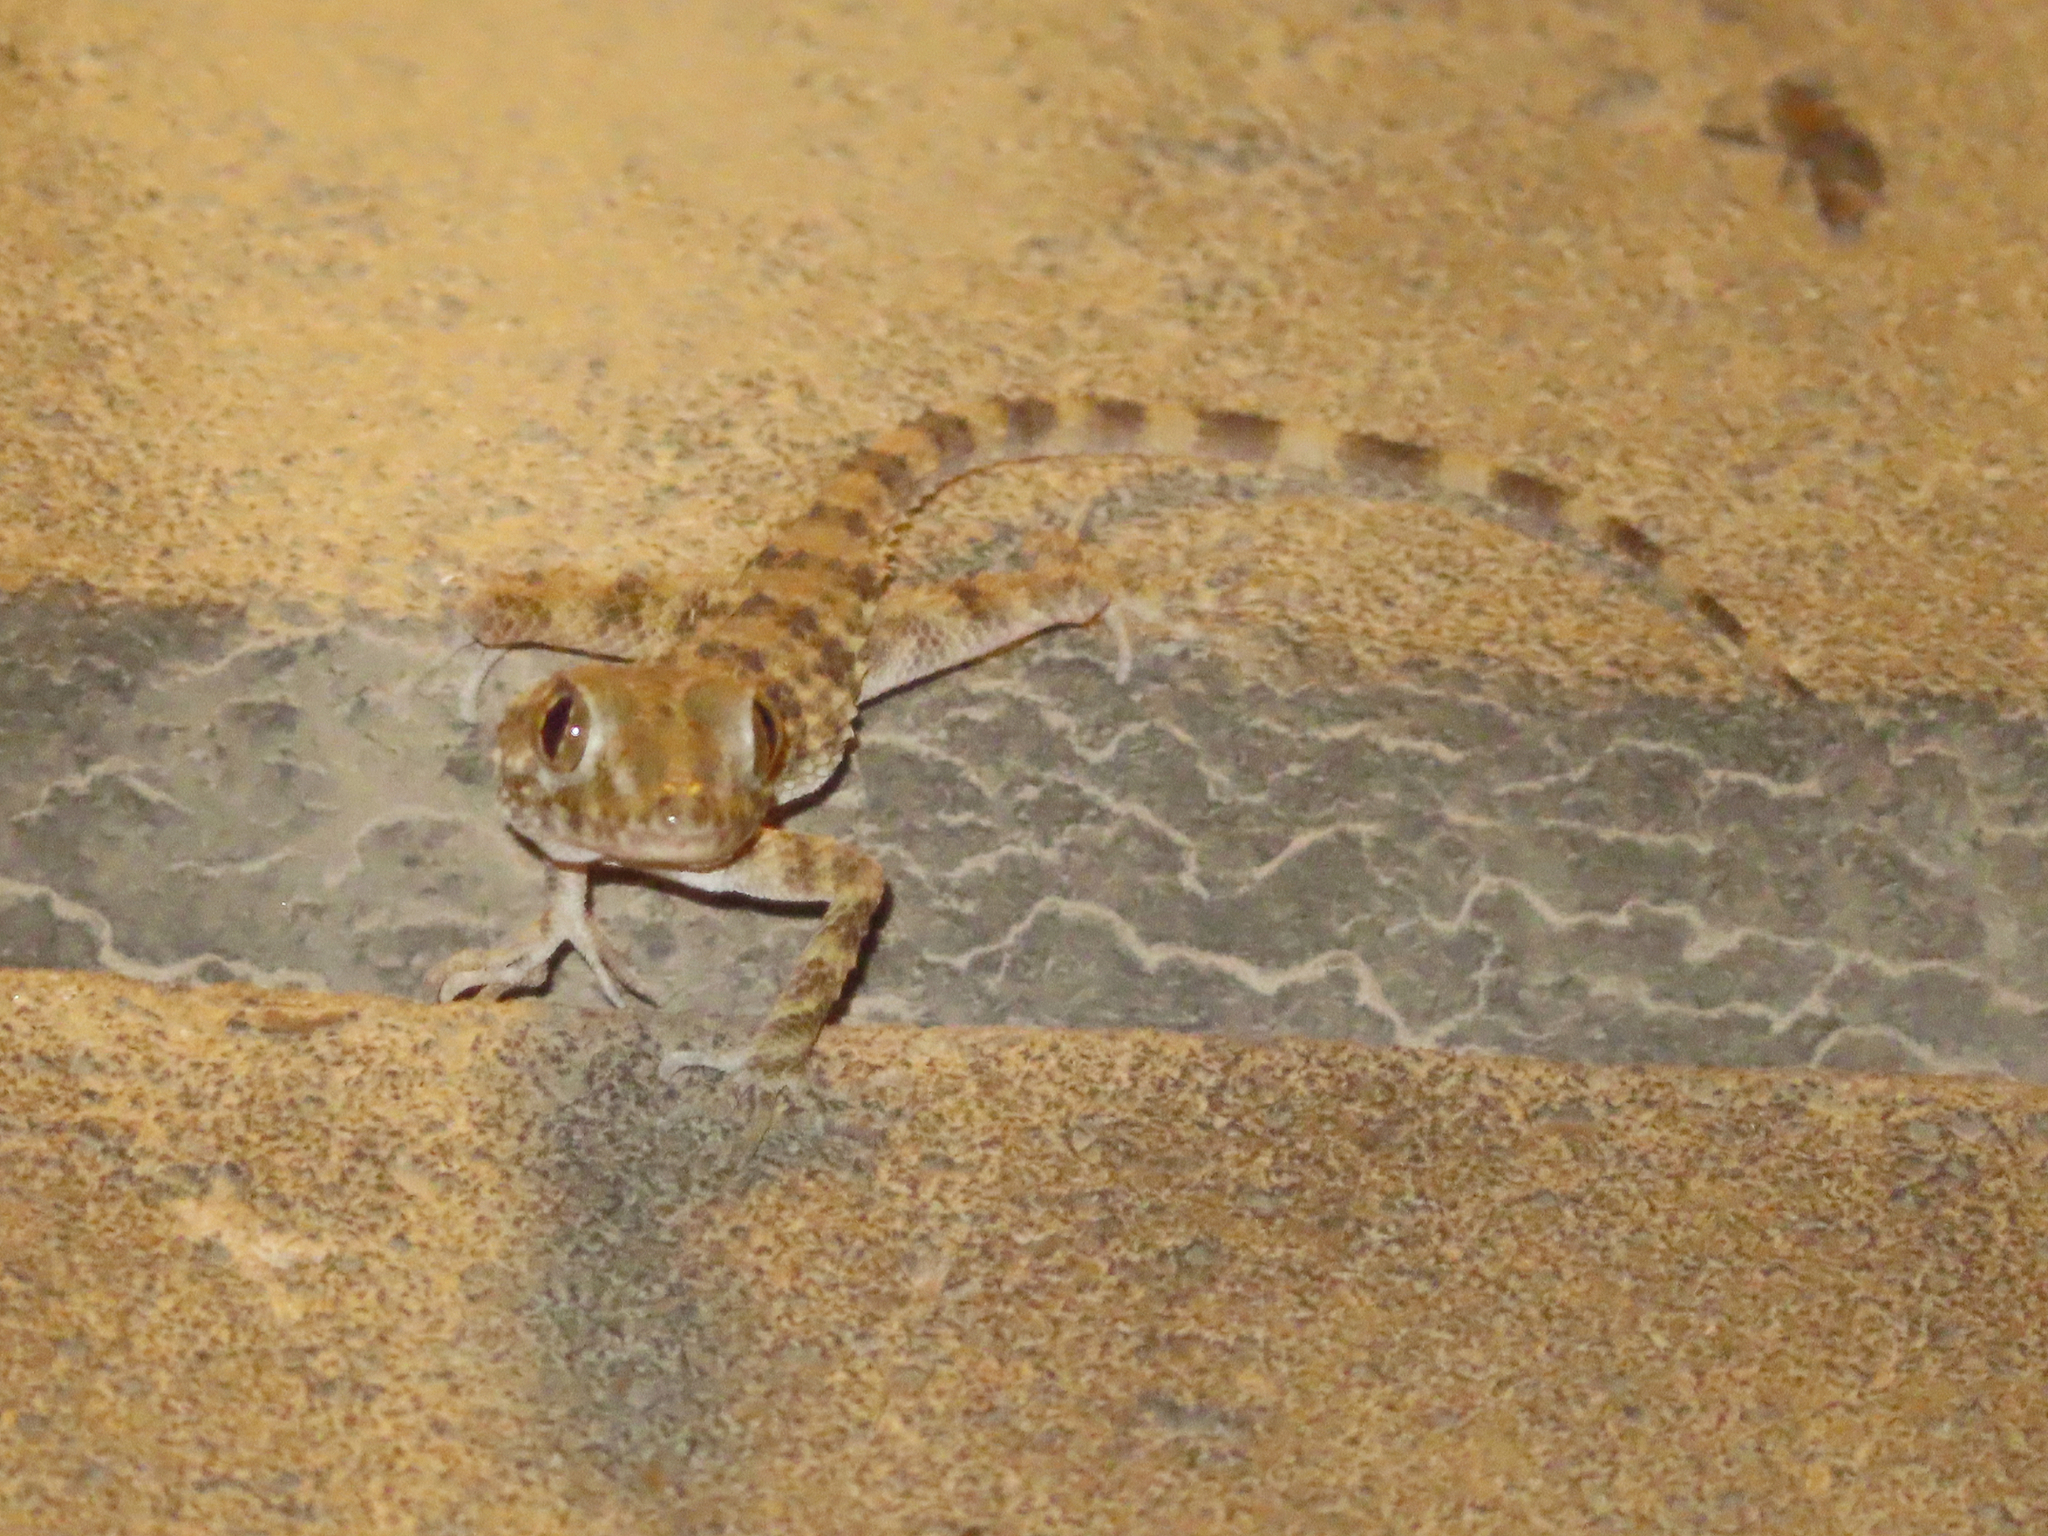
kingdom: Animalia
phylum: Chordata
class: Squamata
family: Gekkonidae
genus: Tenuidactylus
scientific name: Tenuidactylus caspius
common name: Caspian bent-toed gecko
